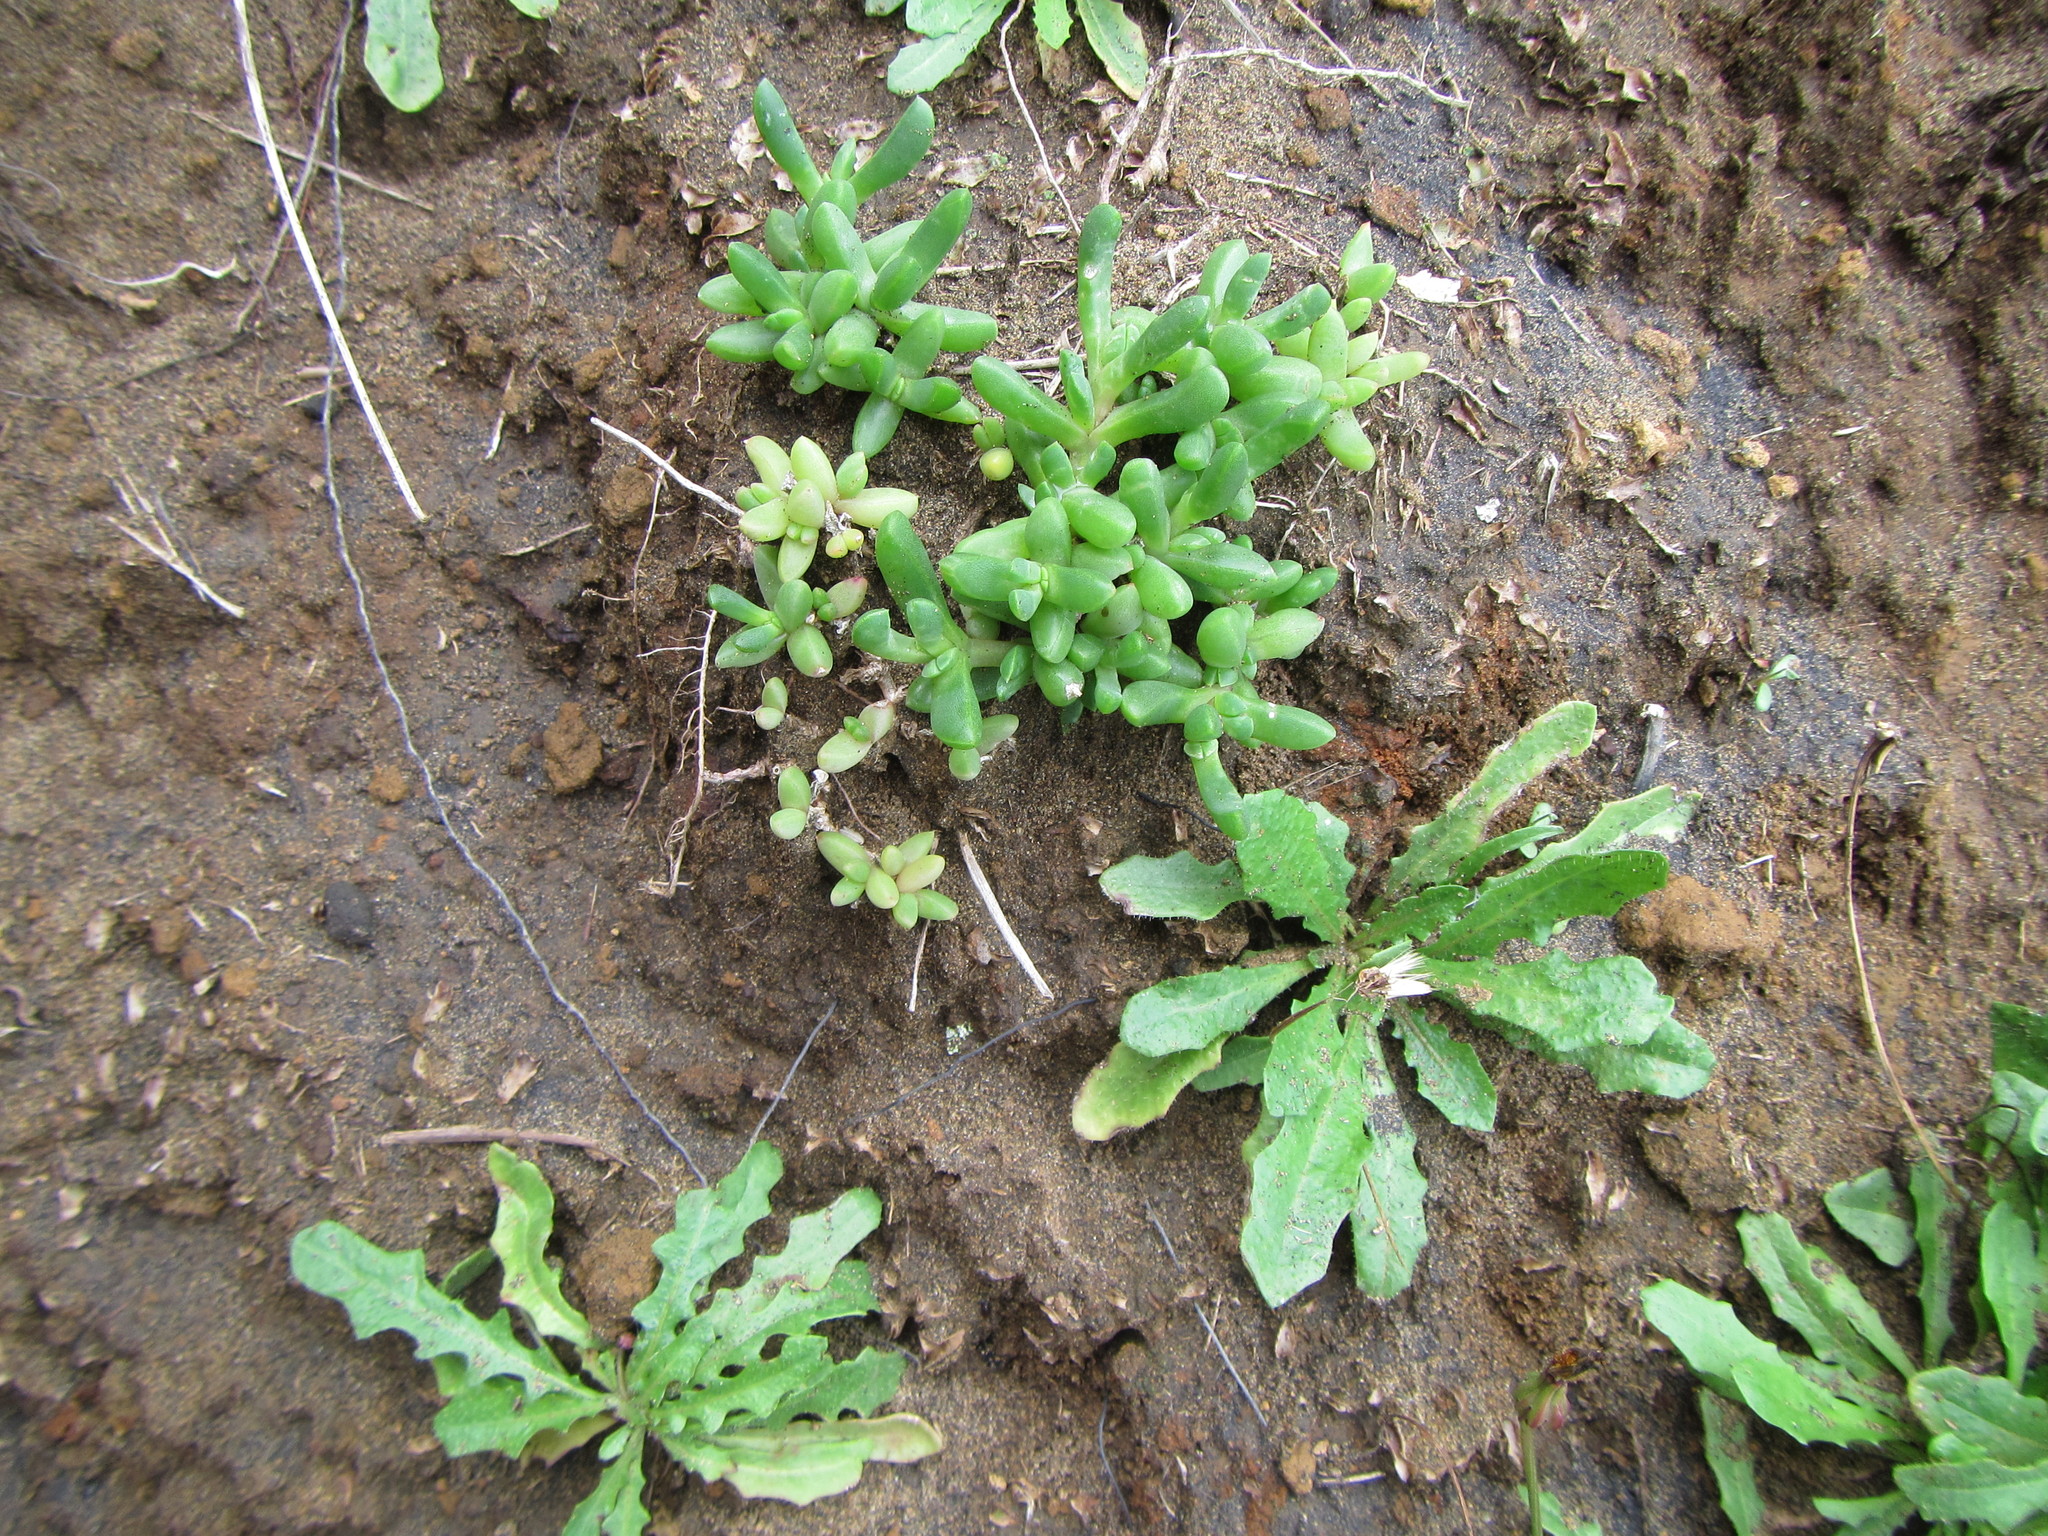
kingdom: Plantae
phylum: Tracheophyta
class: Magnoliopsida
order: Caryophyllales
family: Aizoaceae
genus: Disphyma
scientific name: Disphyma australe
